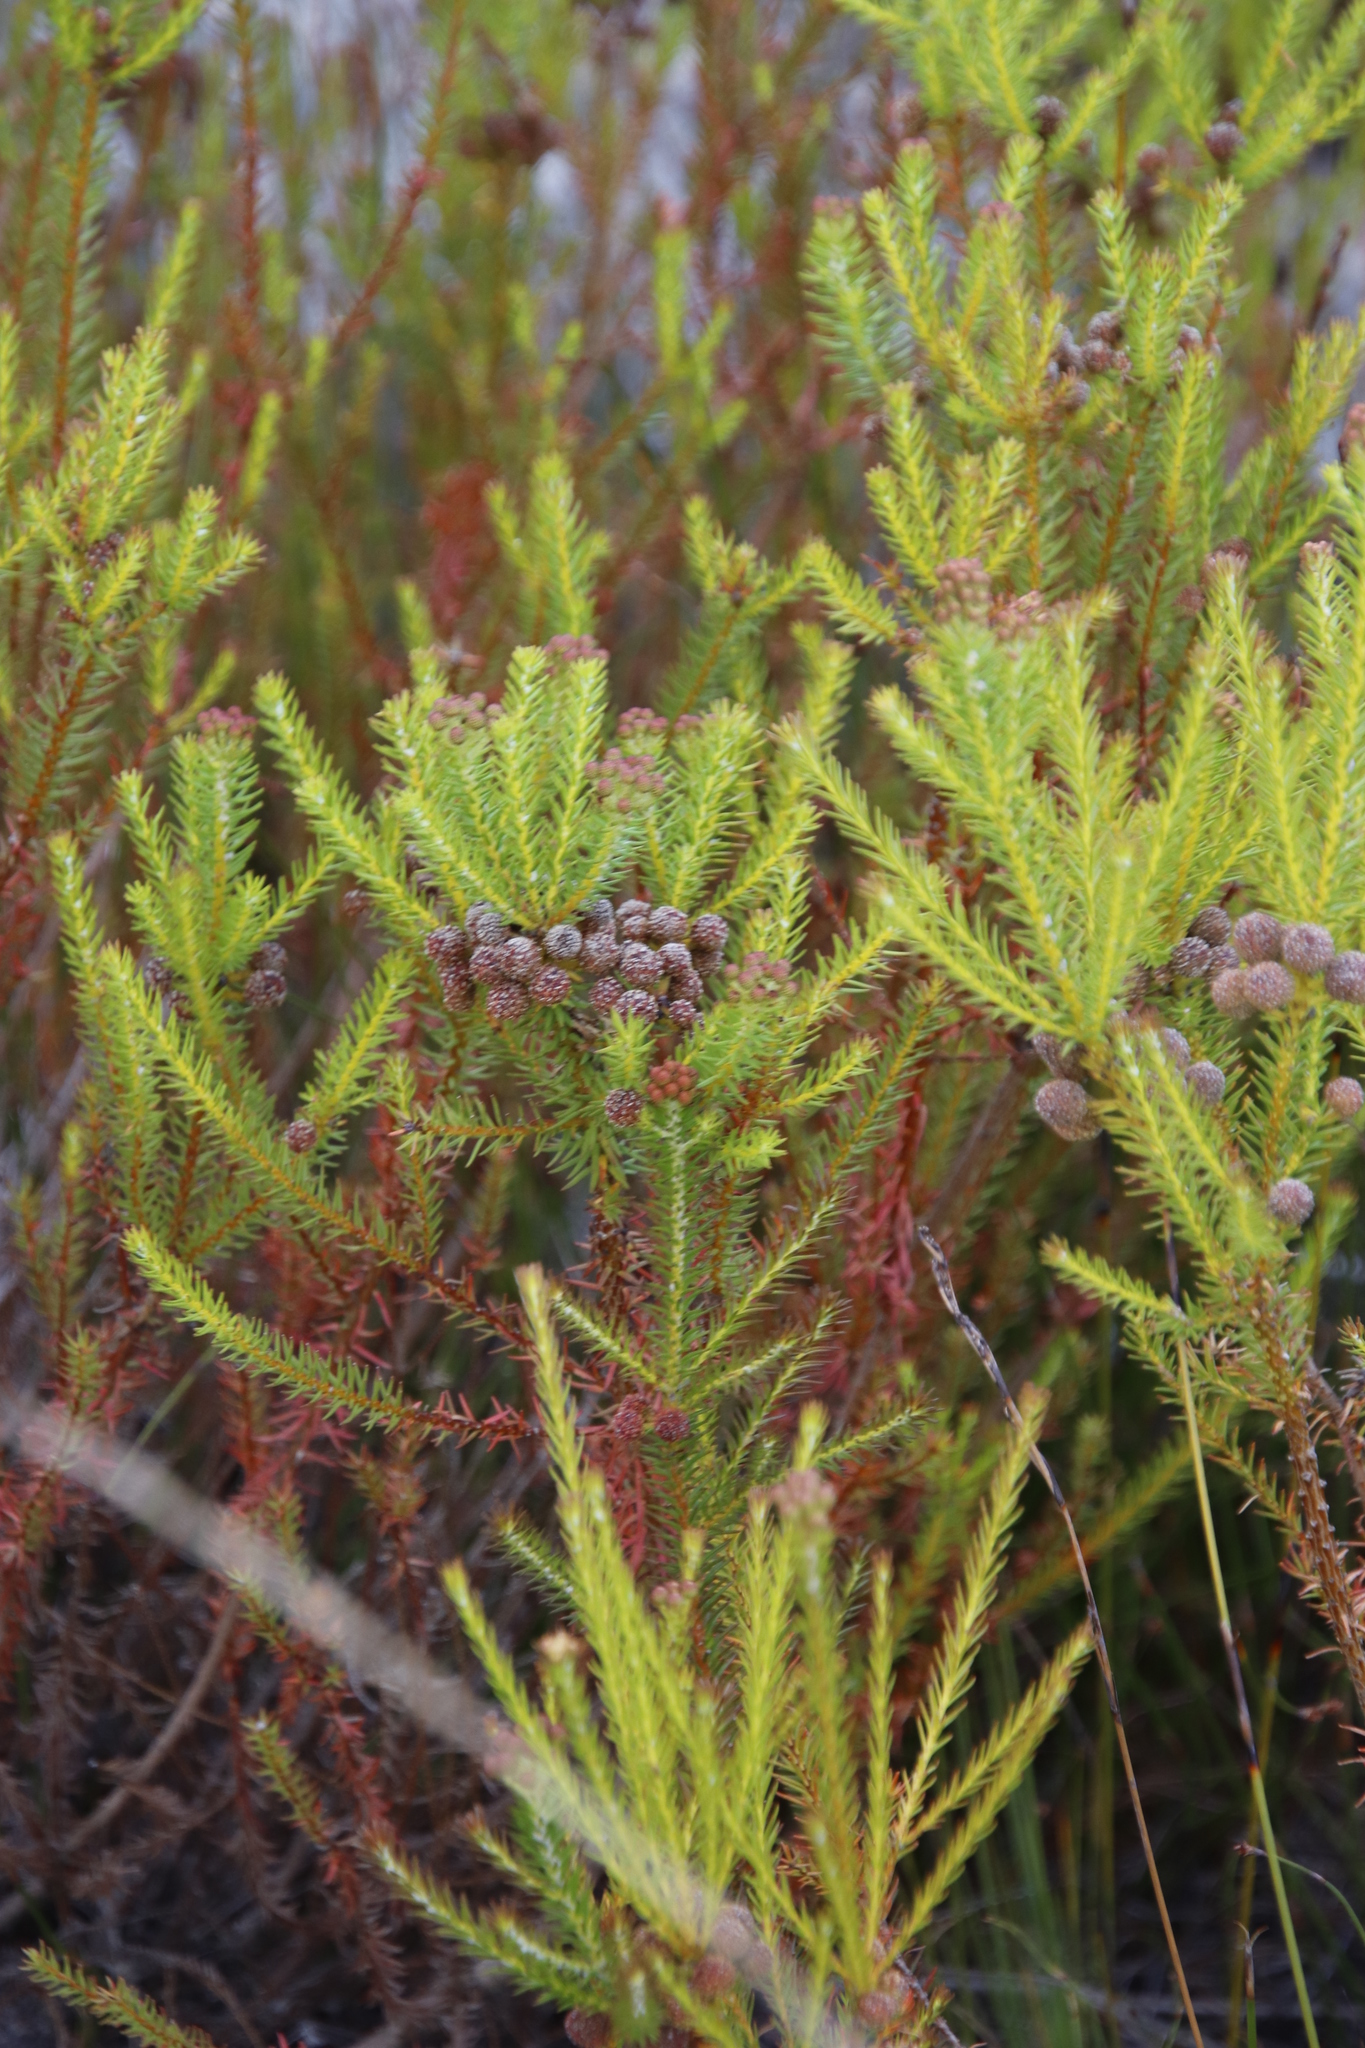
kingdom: Plantae
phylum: Tracheophyta
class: Magnoliopsida
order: Bruniales
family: Bruniaceae
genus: Berzelia
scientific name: Berzelia squarrosa
